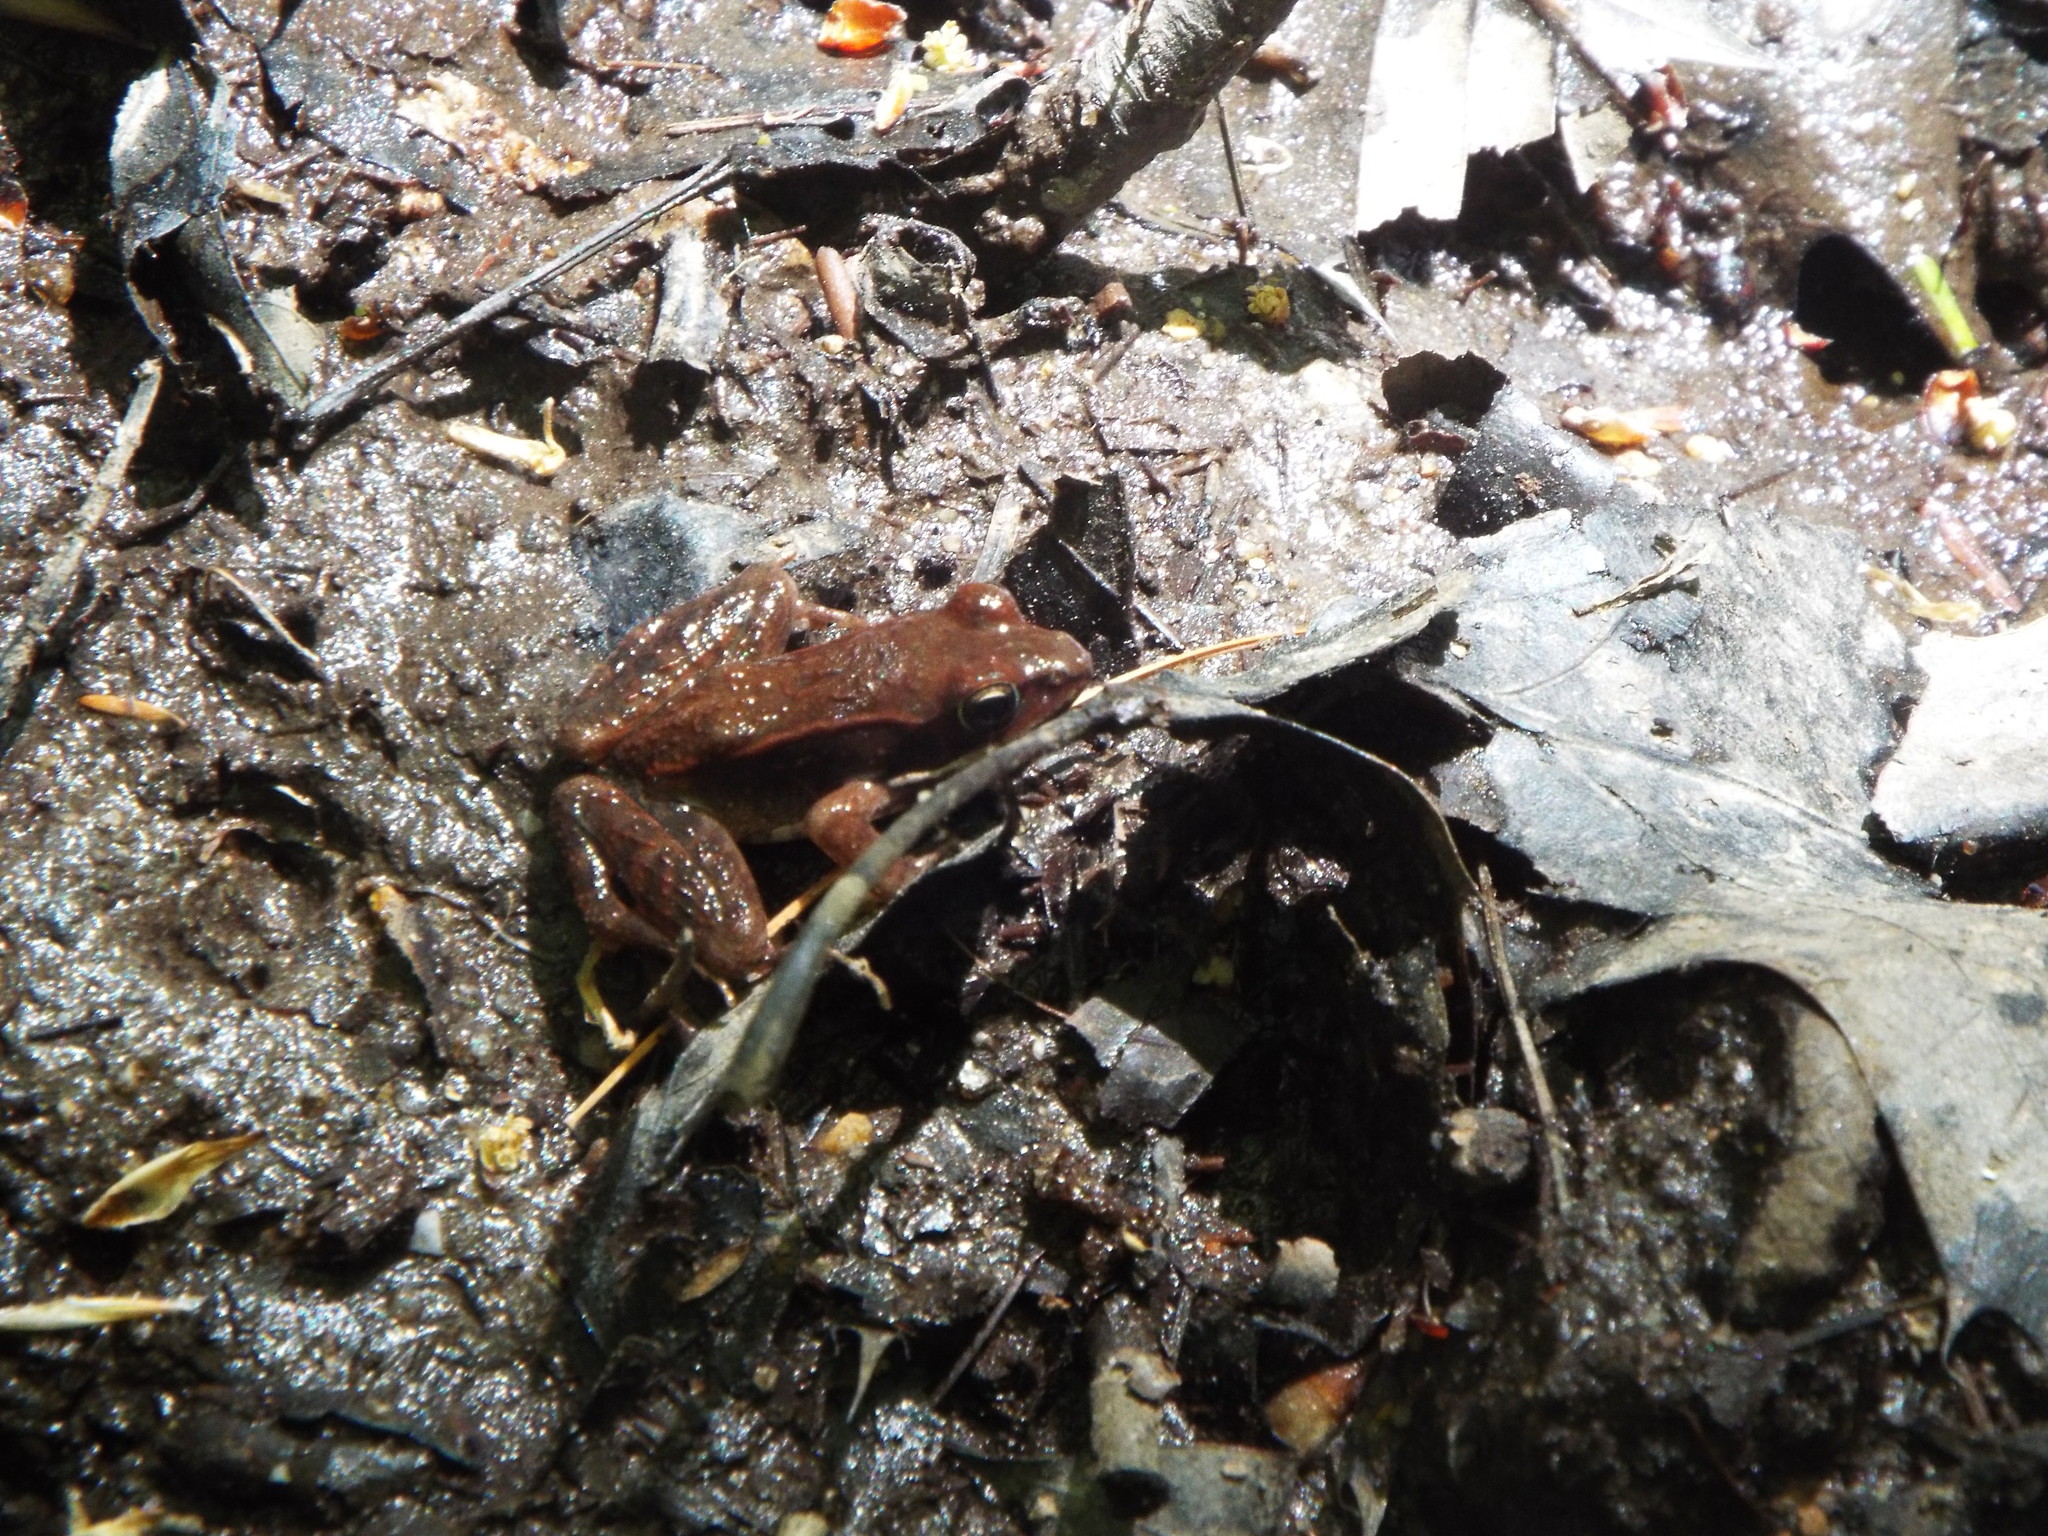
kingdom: Animalia
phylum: Chordata
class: Amphibia
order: Anura
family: Ranidae
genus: Lithobates
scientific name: Lithobates sylvaticus
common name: Wood frog
